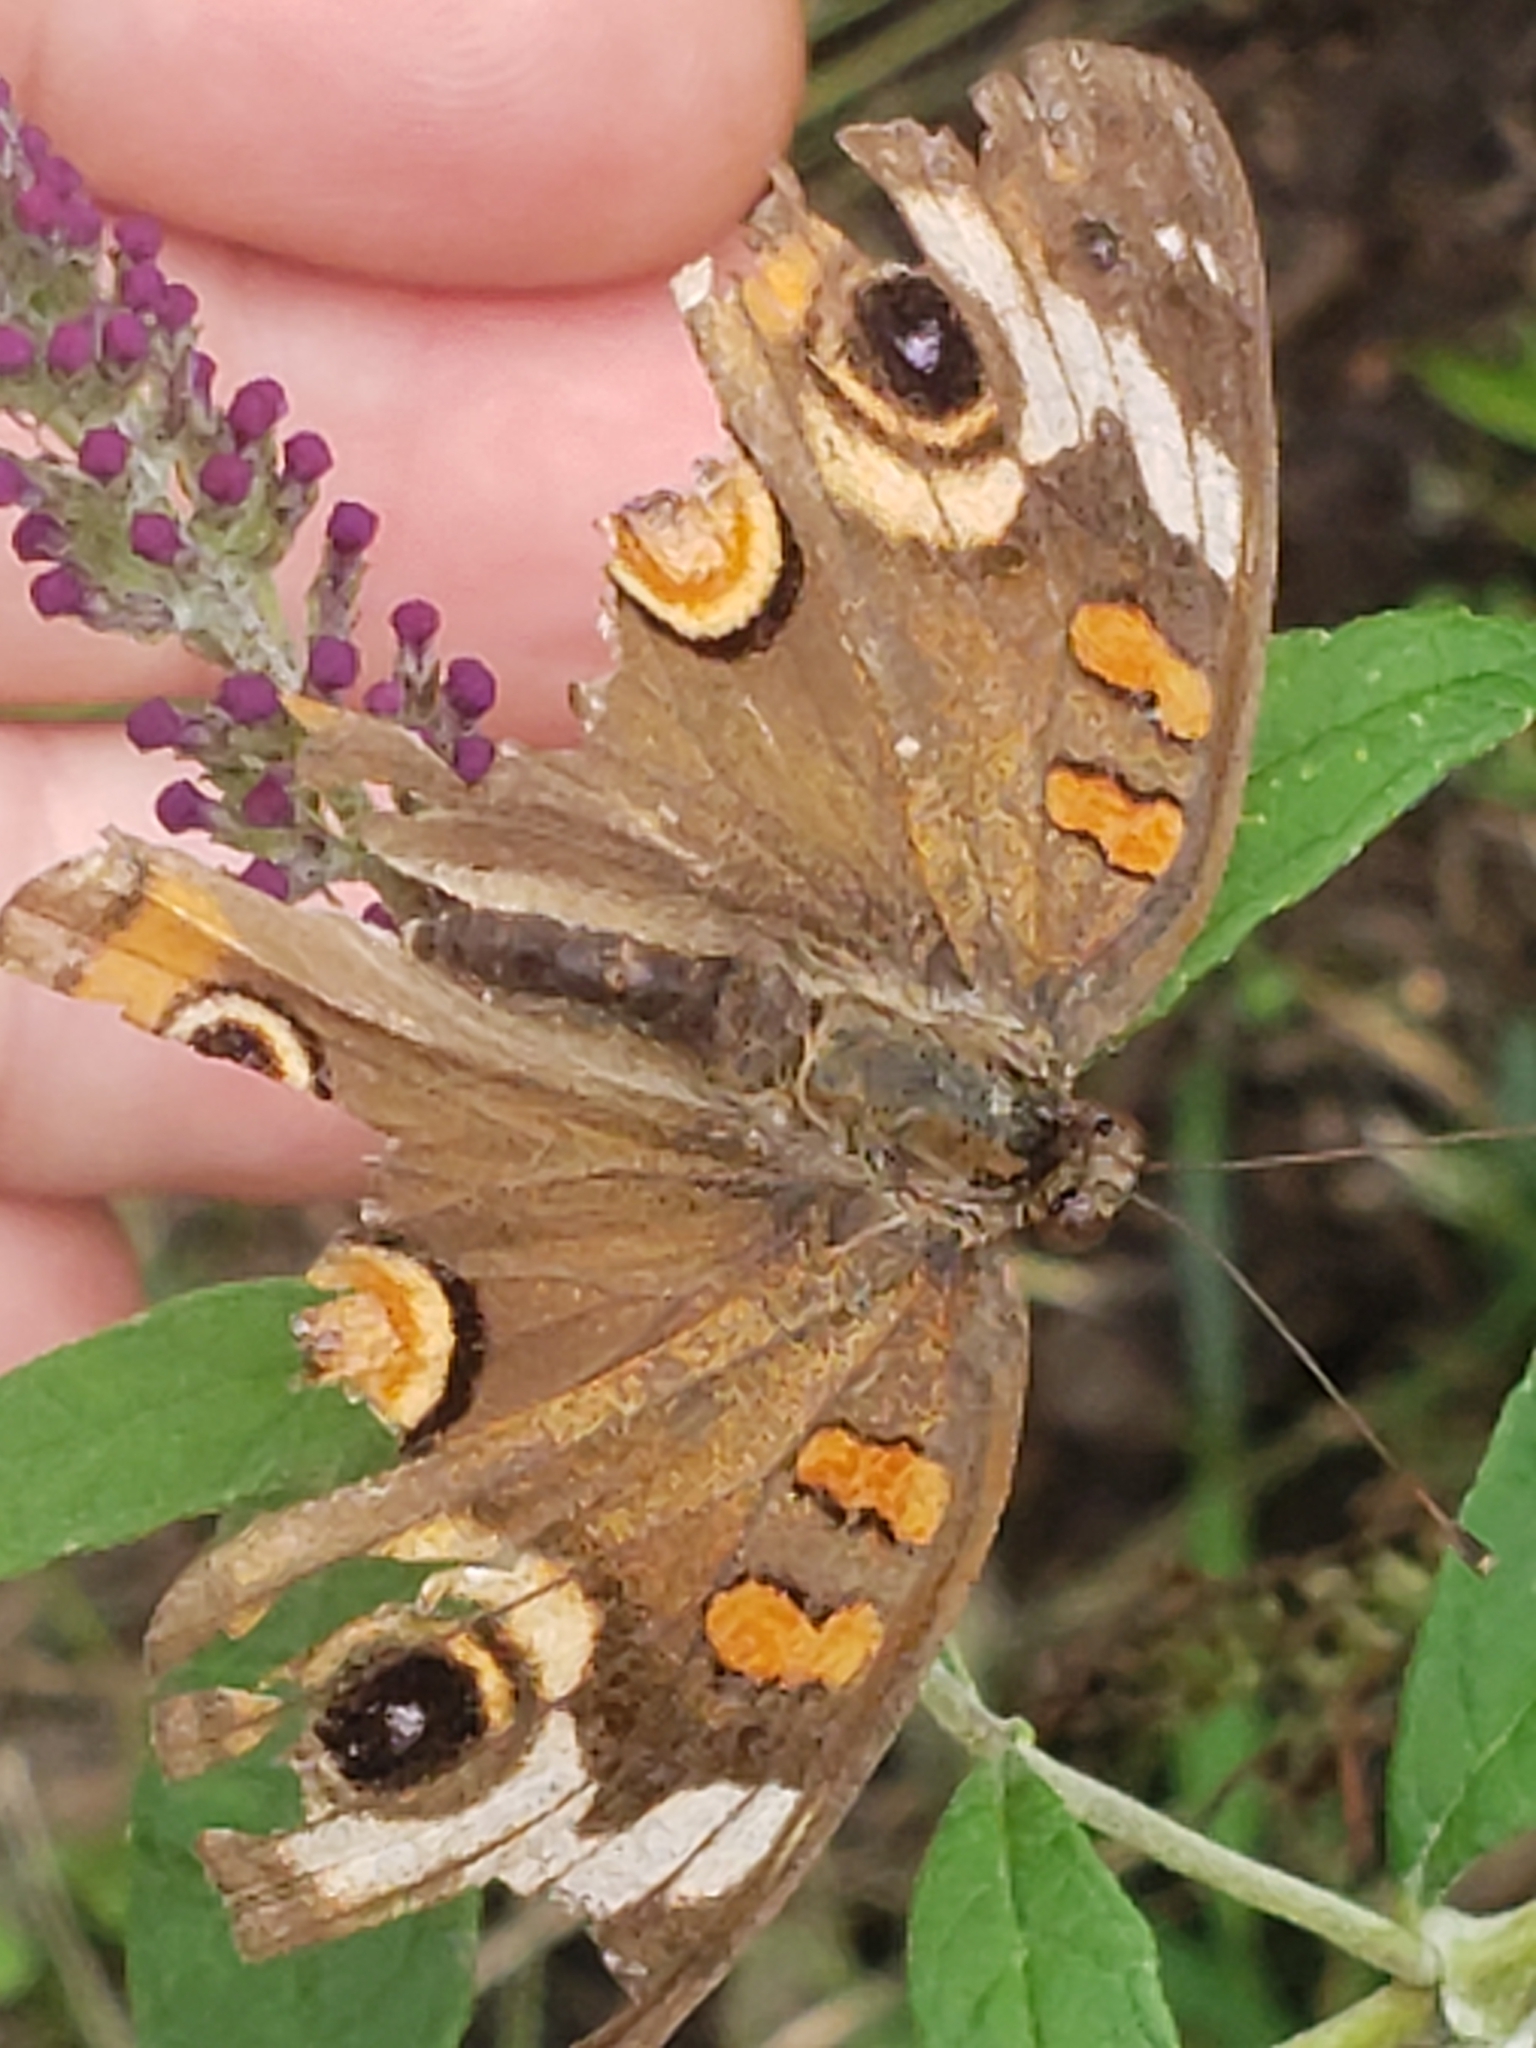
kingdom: Animalia
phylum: Arthropoda
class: Insecta
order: Lepidoptera
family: Nymphalidae
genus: Junonia
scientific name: Junonia coenia
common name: Common buckeye
